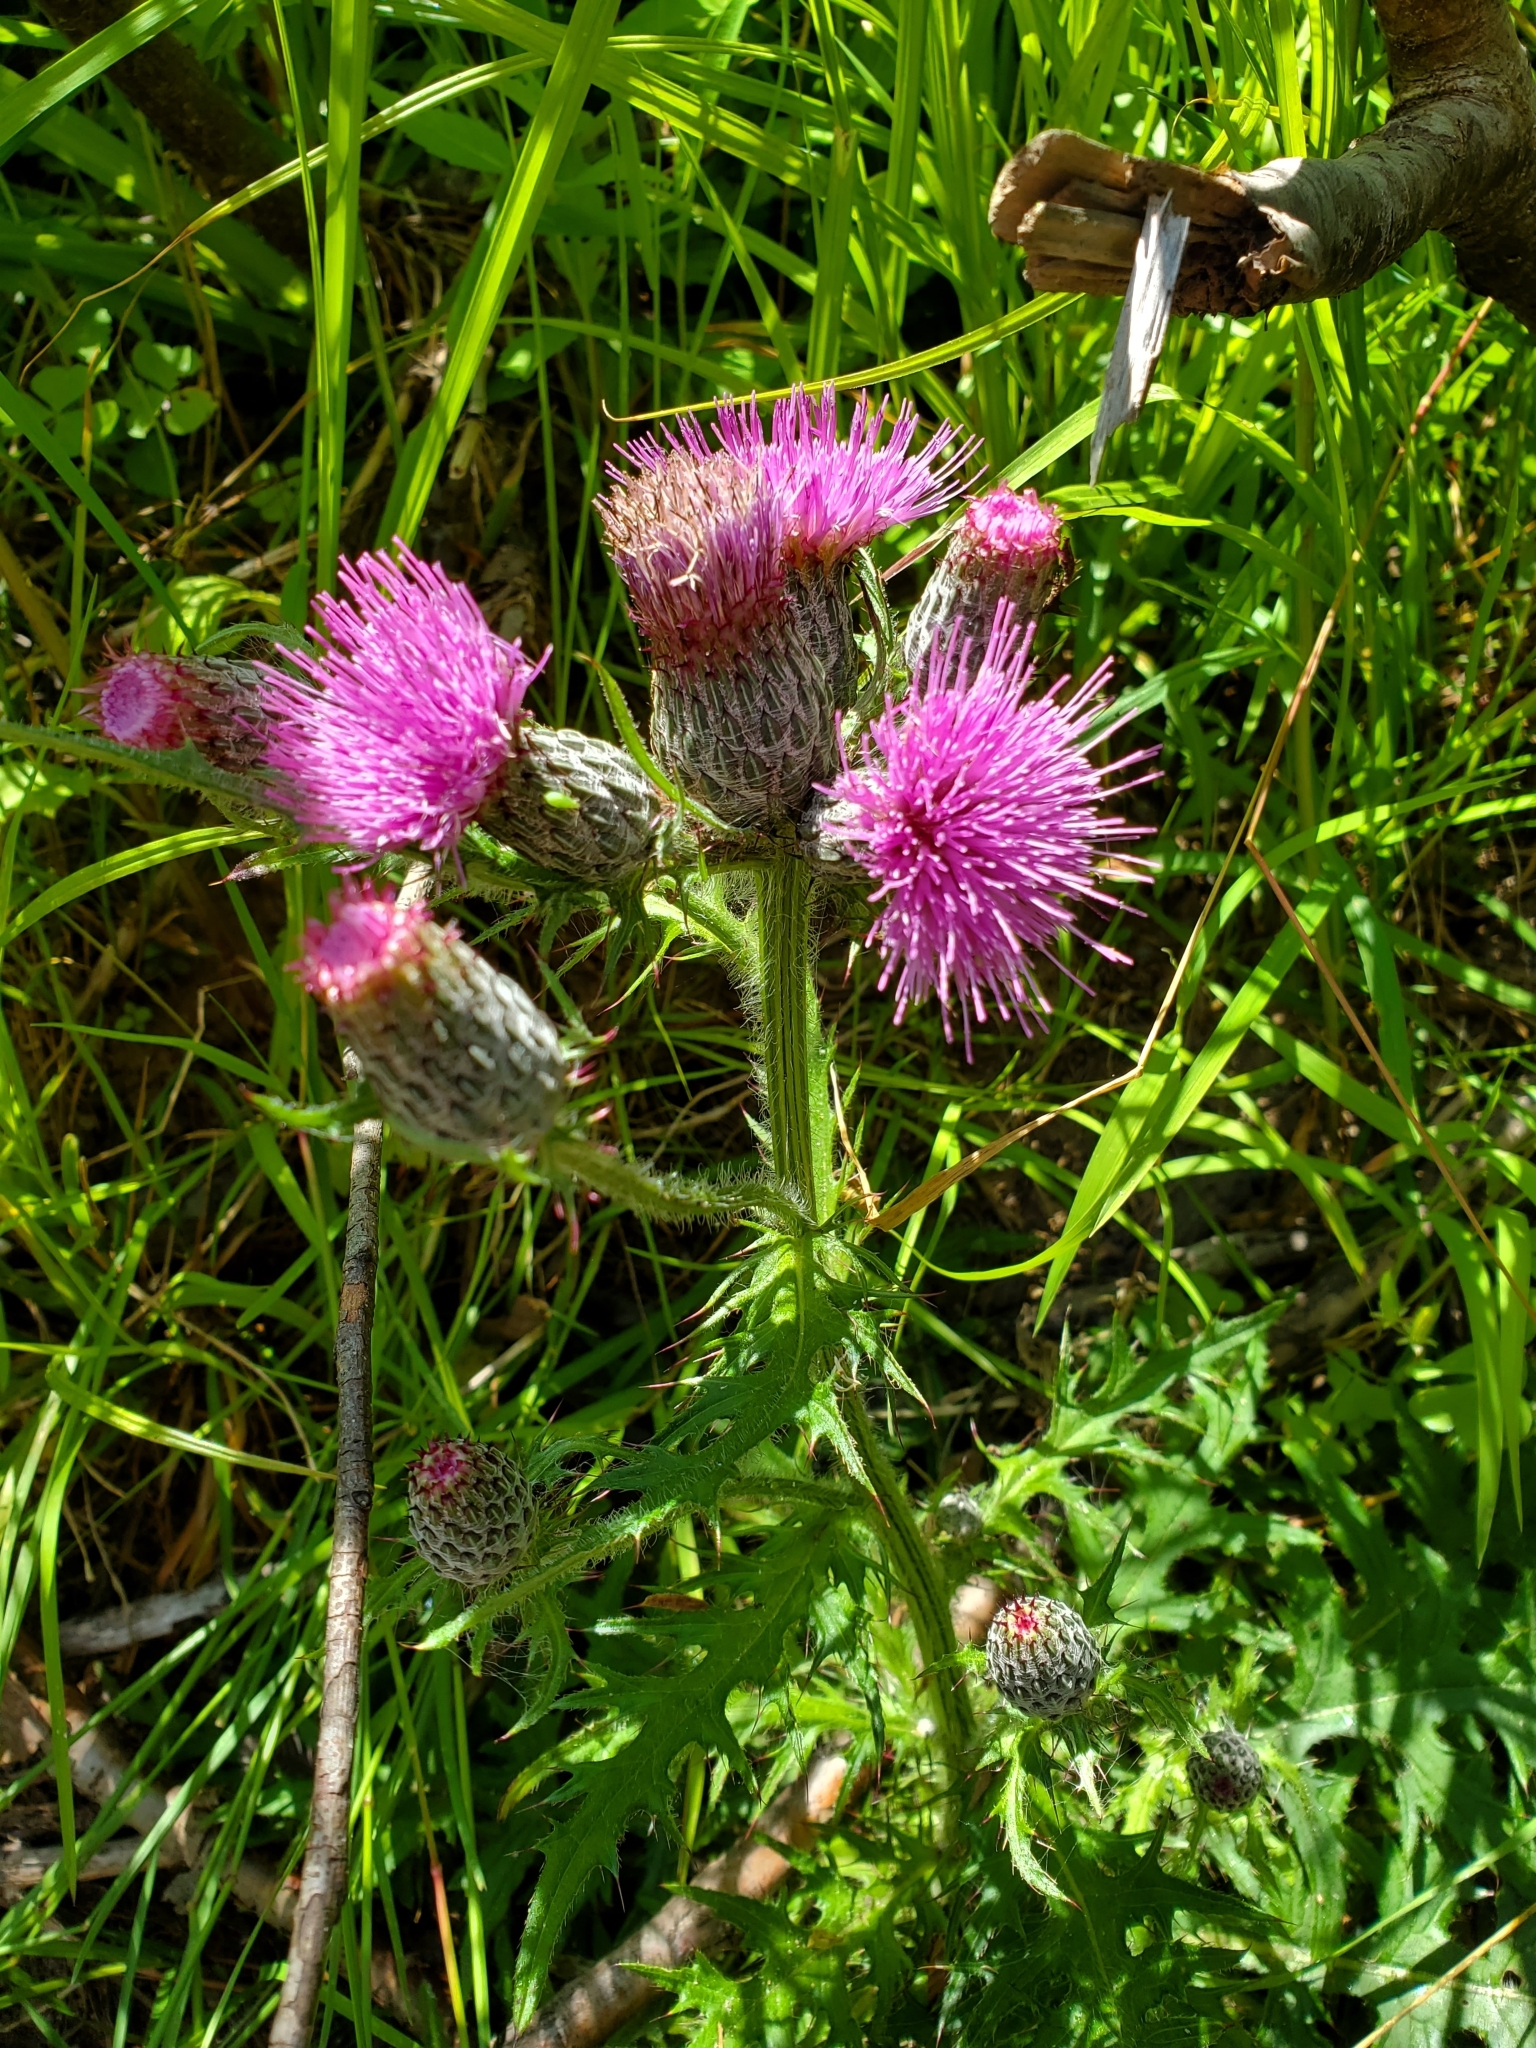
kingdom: Plantae
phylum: Tracheophyta
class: Magnoliopsida
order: Asterales
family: Asteraceae
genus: Cirsium
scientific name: Cirsium muticum
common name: Dunce-nettle
